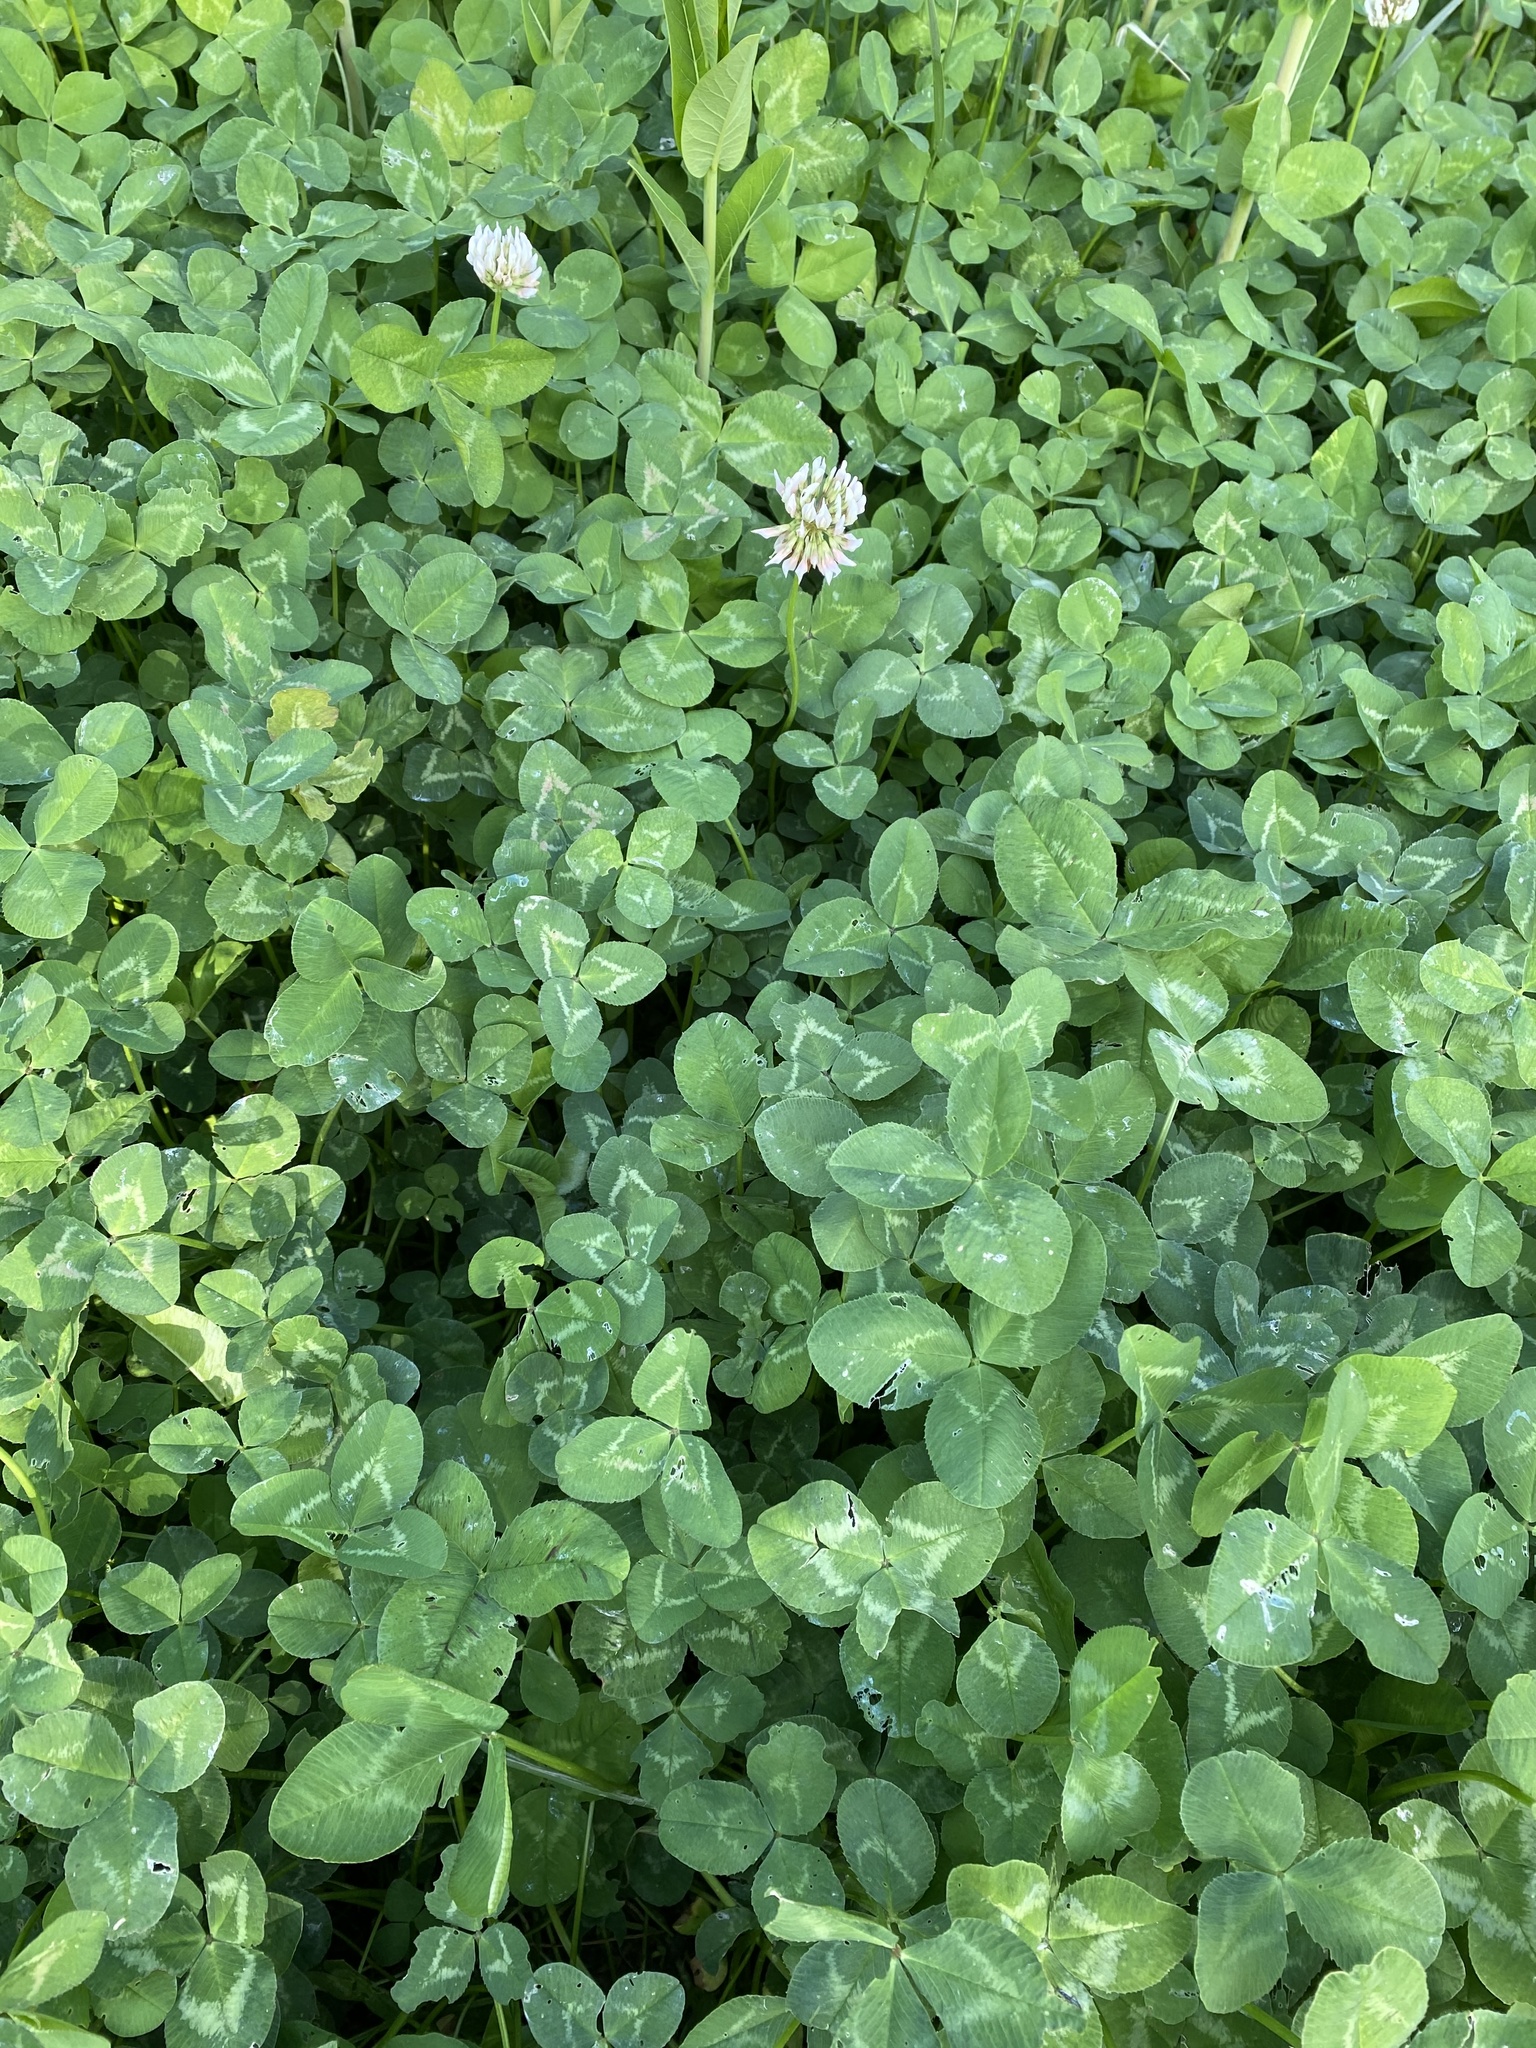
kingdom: Plantae
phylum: Tracheophyta
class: Magnoliopsida
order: Fabales
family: Fabaceae
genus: Trifolium
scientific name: Trifolium repens
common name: White clover
